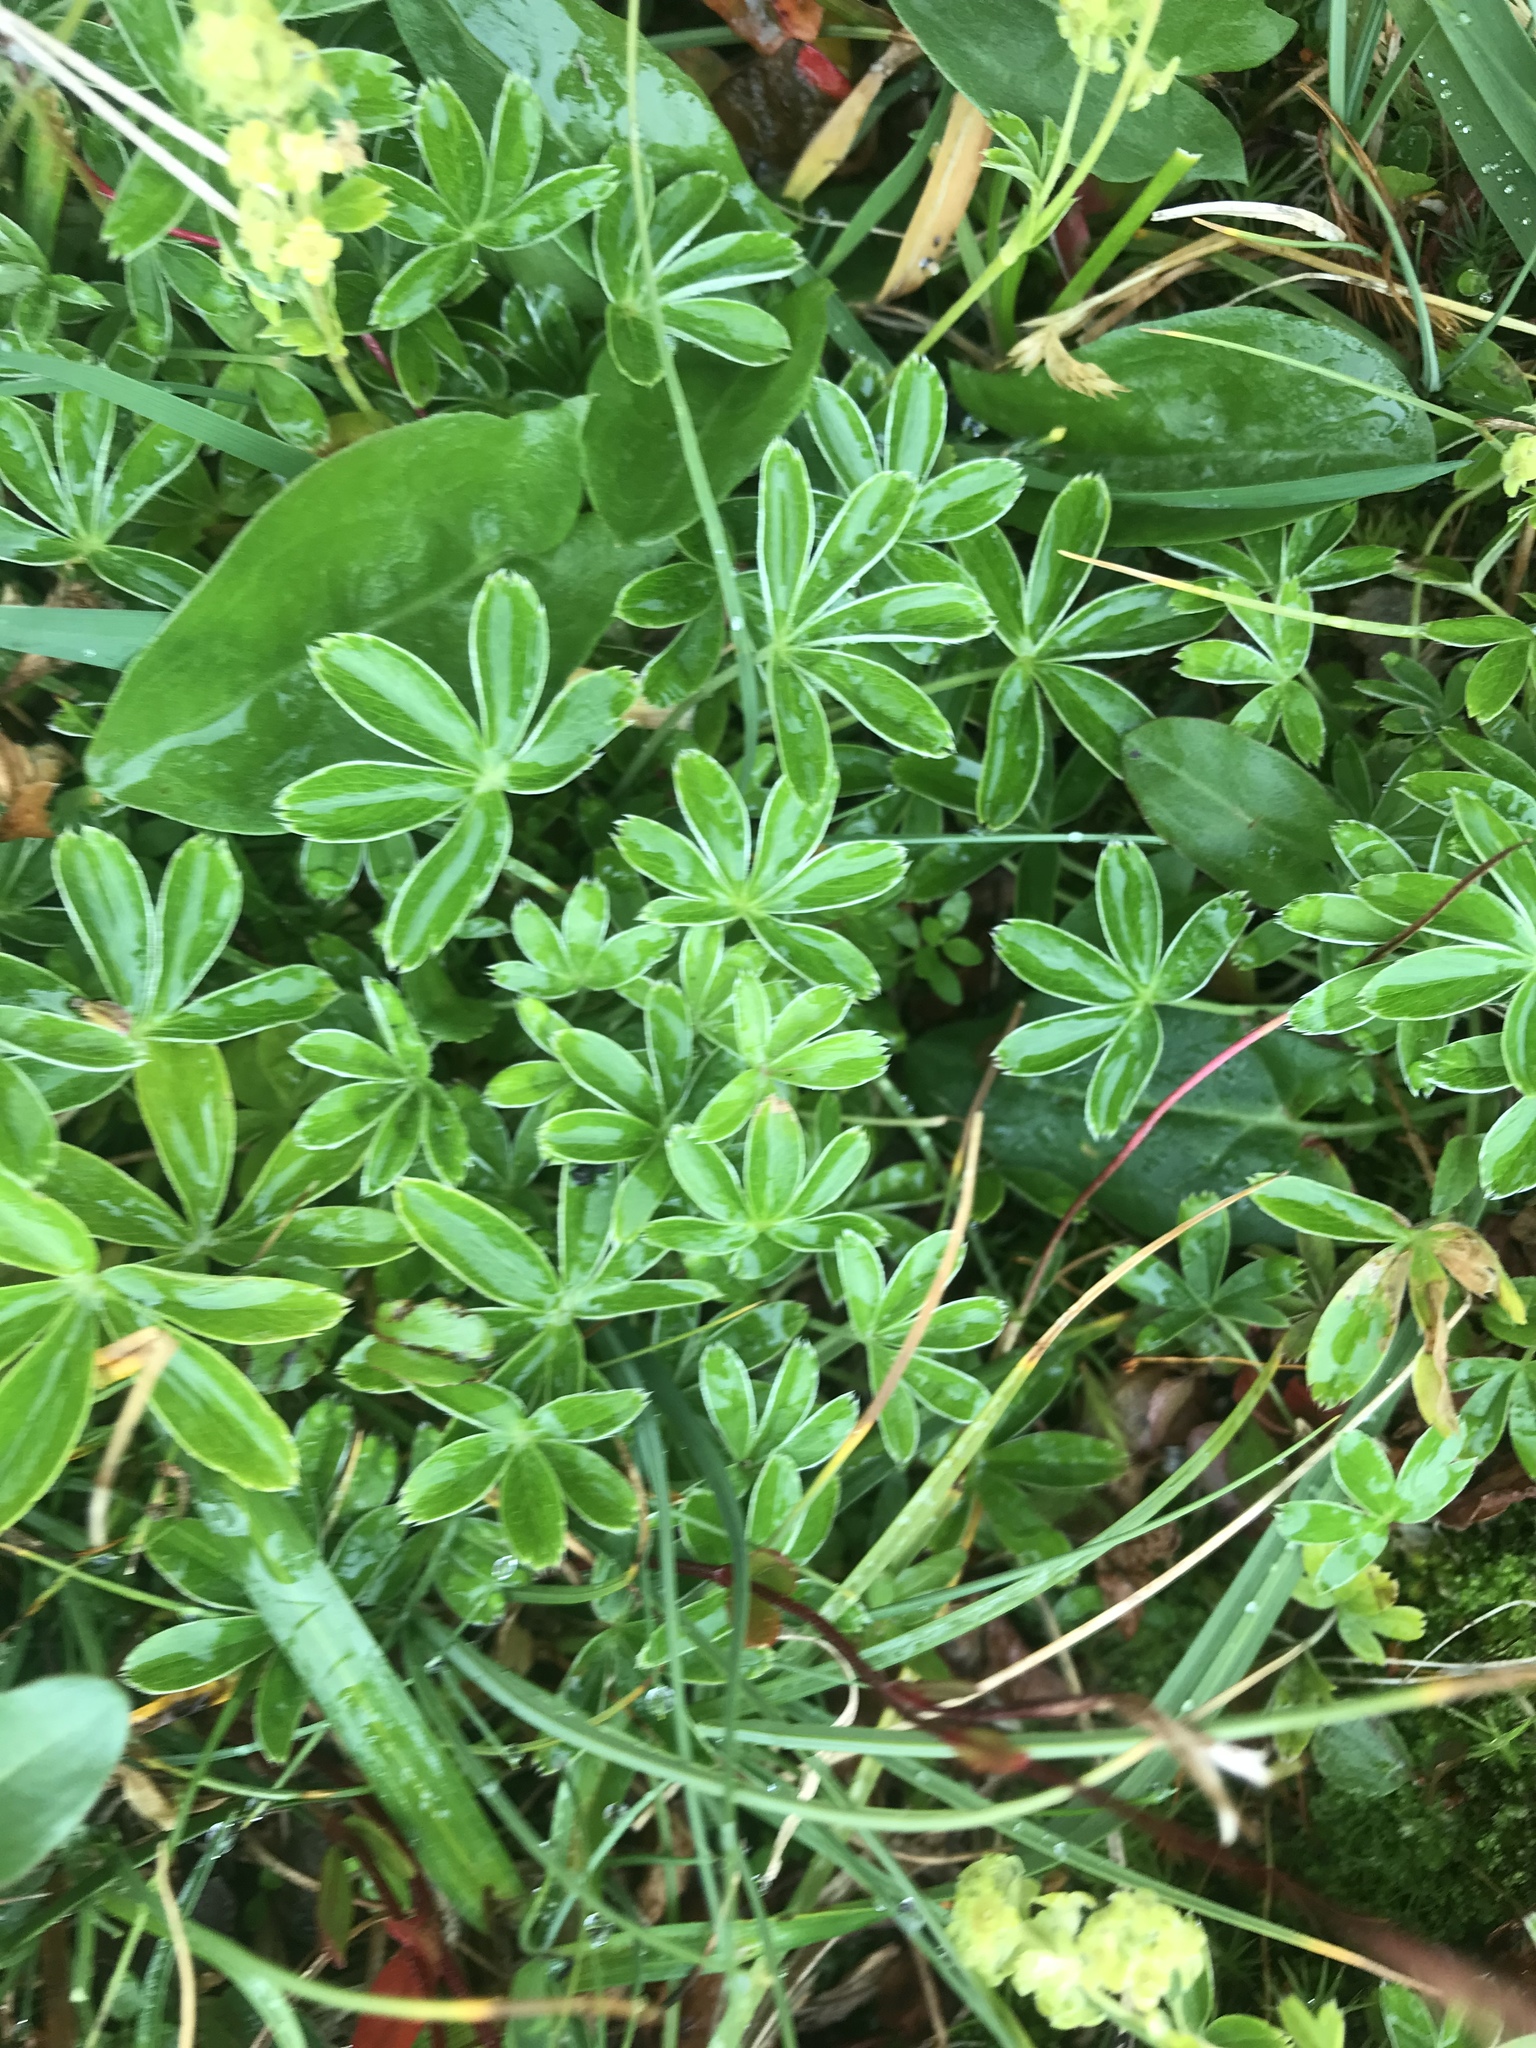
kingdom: Plantae
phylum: Tracheophyta
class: Magnoliopsida
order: Rosales
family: Rosaceae
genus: Alchemilla
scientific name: Alchemilla alpina
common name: Alpine lady's-mantle
